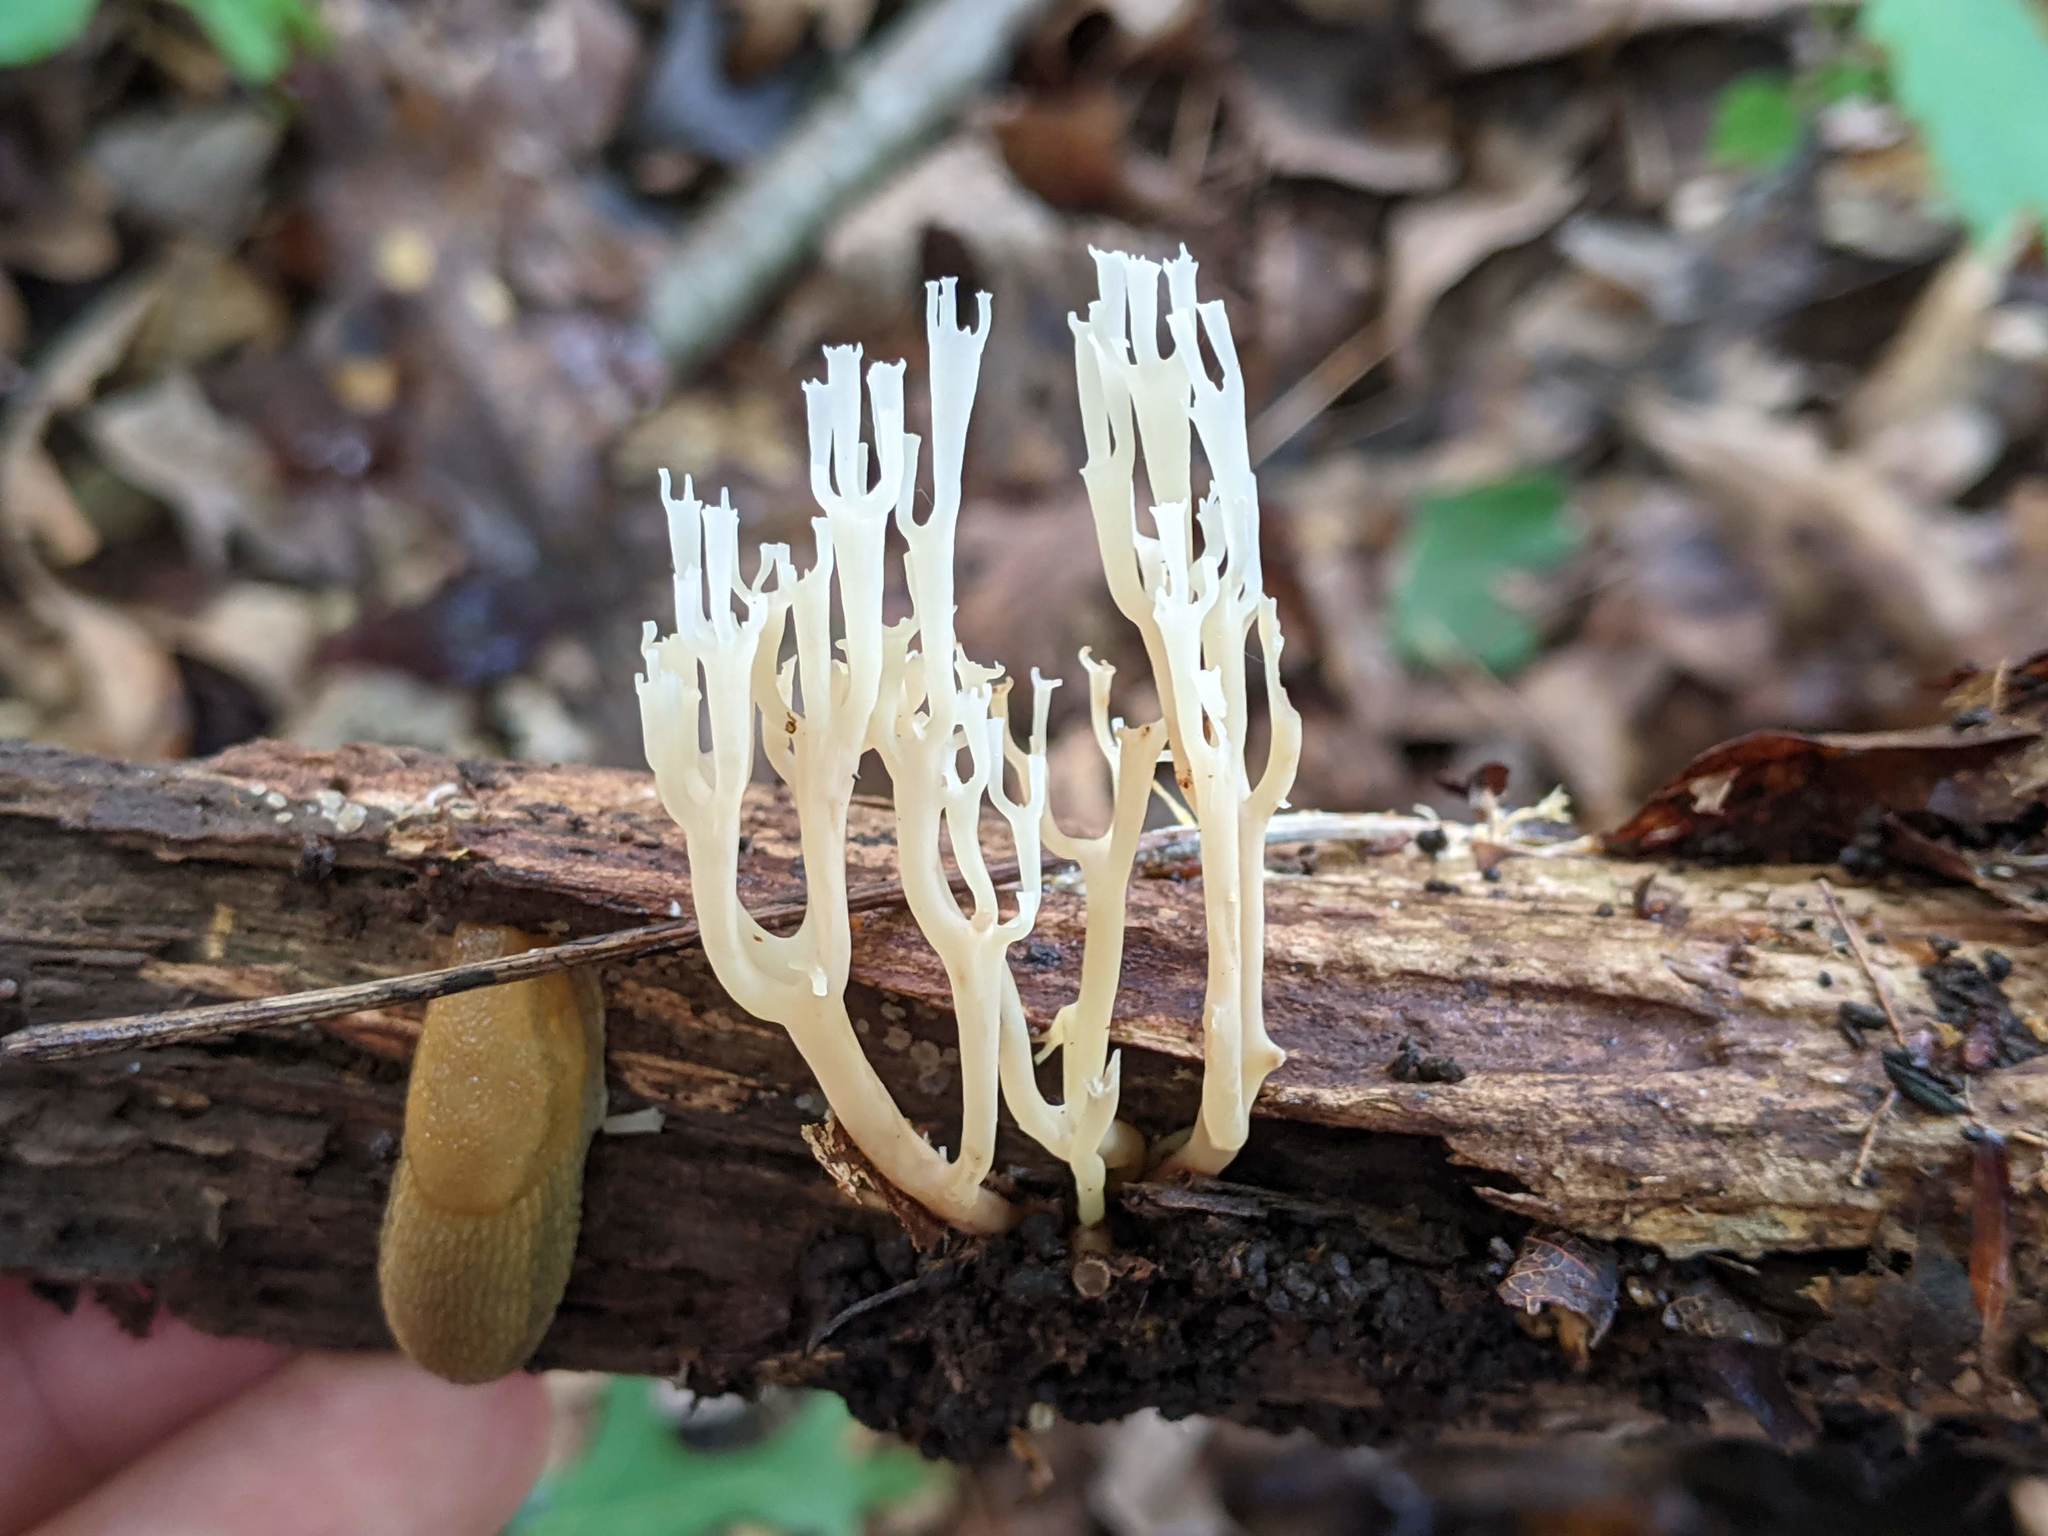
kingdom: Fungi
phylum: Basidiomycota
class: Agaricomycetes
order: Russulales
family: Auriscalpiaceae
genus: Artomyces
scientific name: Artomyces pyxidatus
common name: Crown-tipped coral fungus
